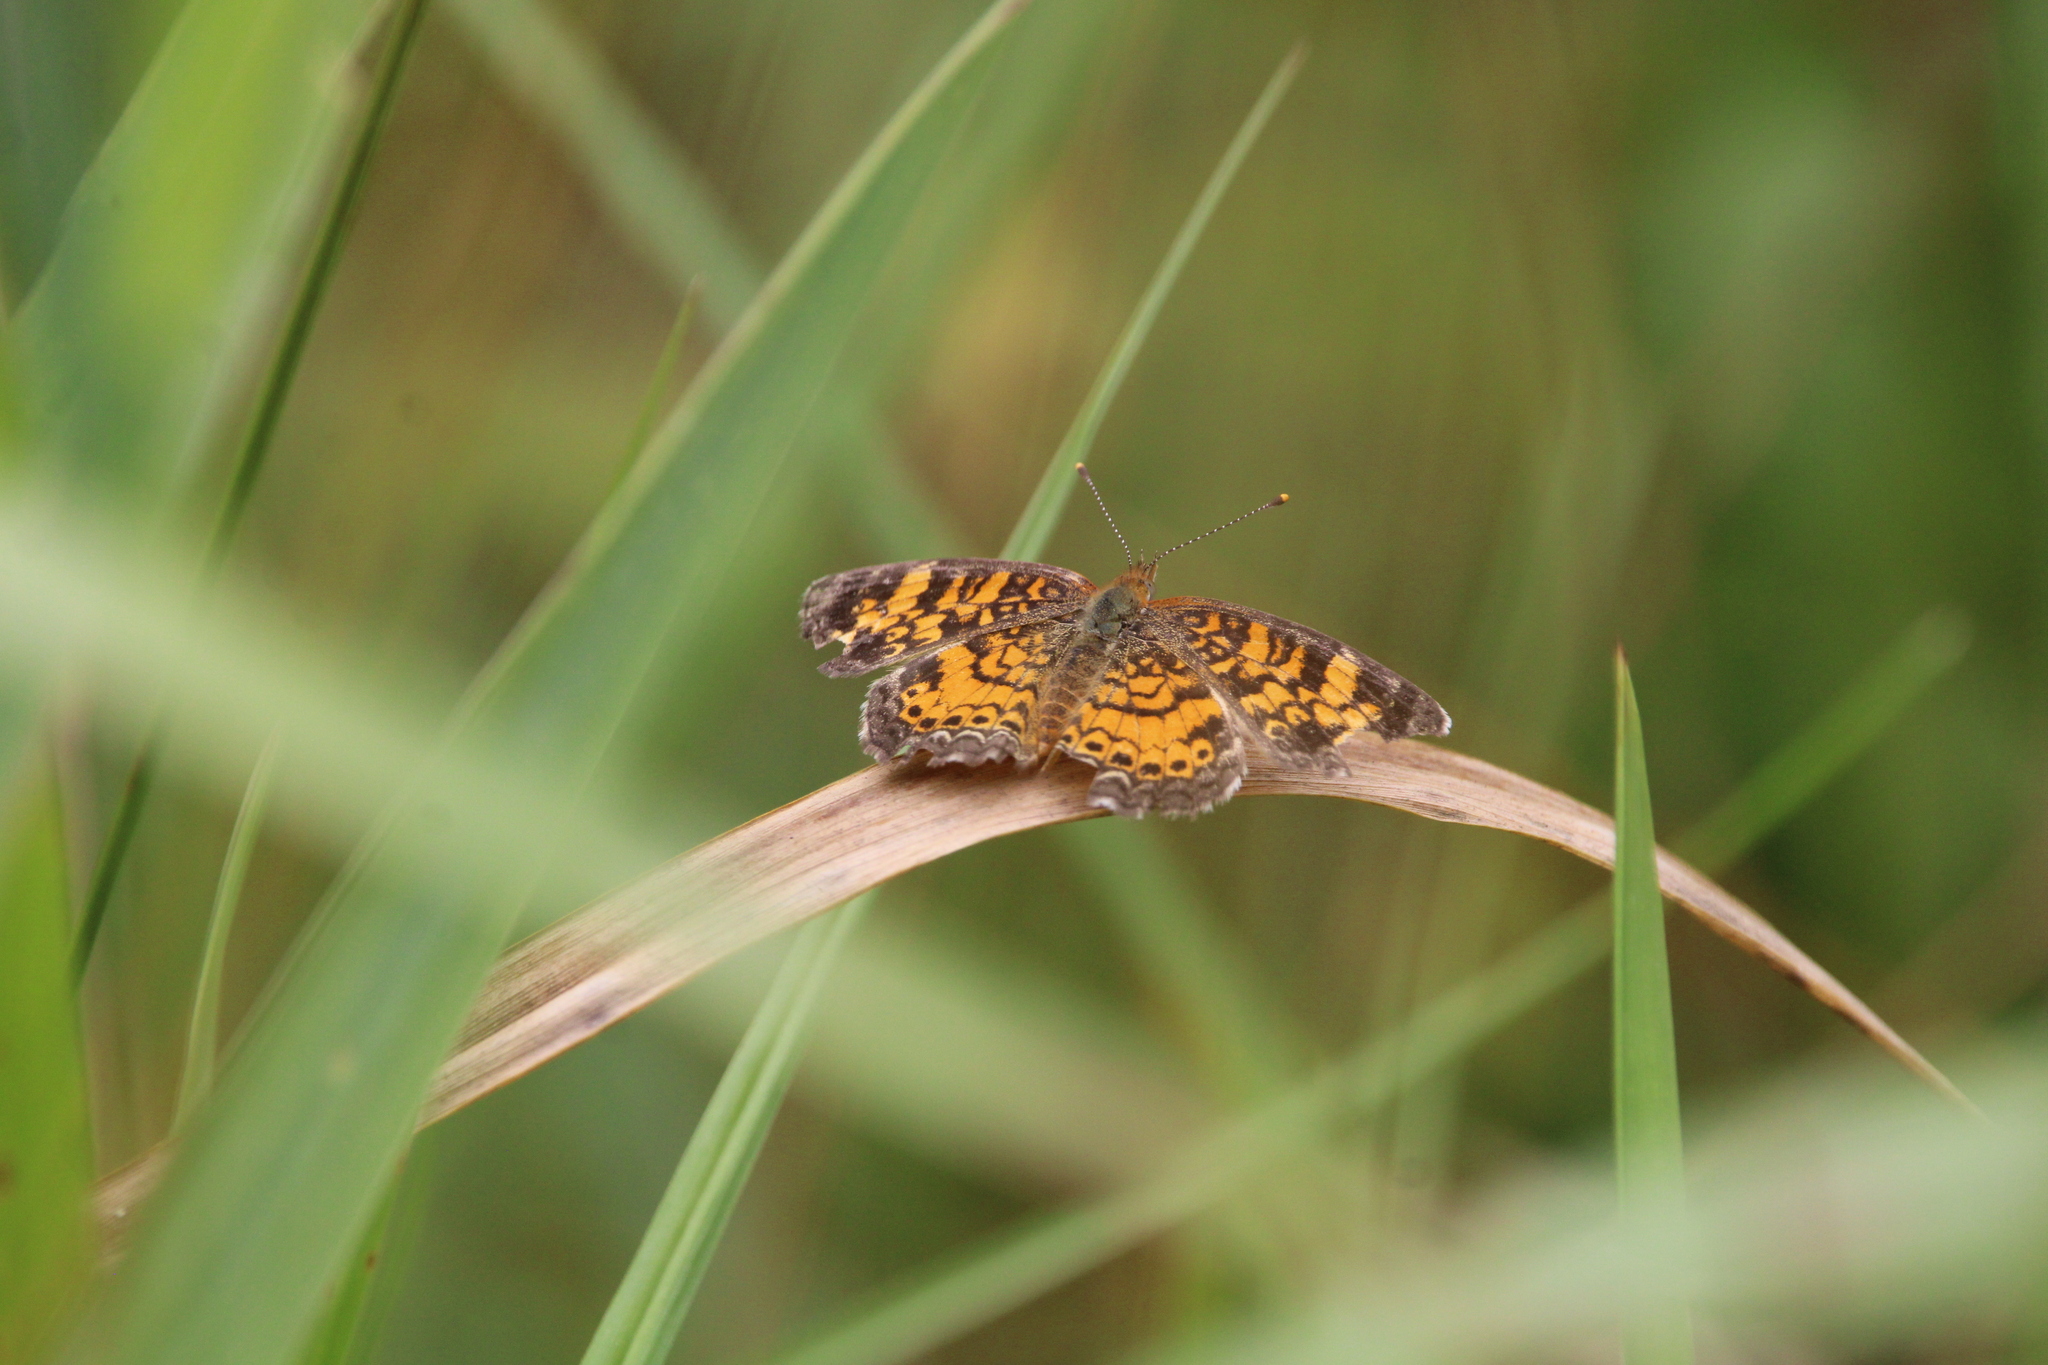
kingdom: Animalia
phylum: Arthropoda
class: Insecta
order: Lepidoptera
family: Nymphalidae
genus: Phyciodes
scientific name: Phyciodes tharos
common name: Pearl crescent
